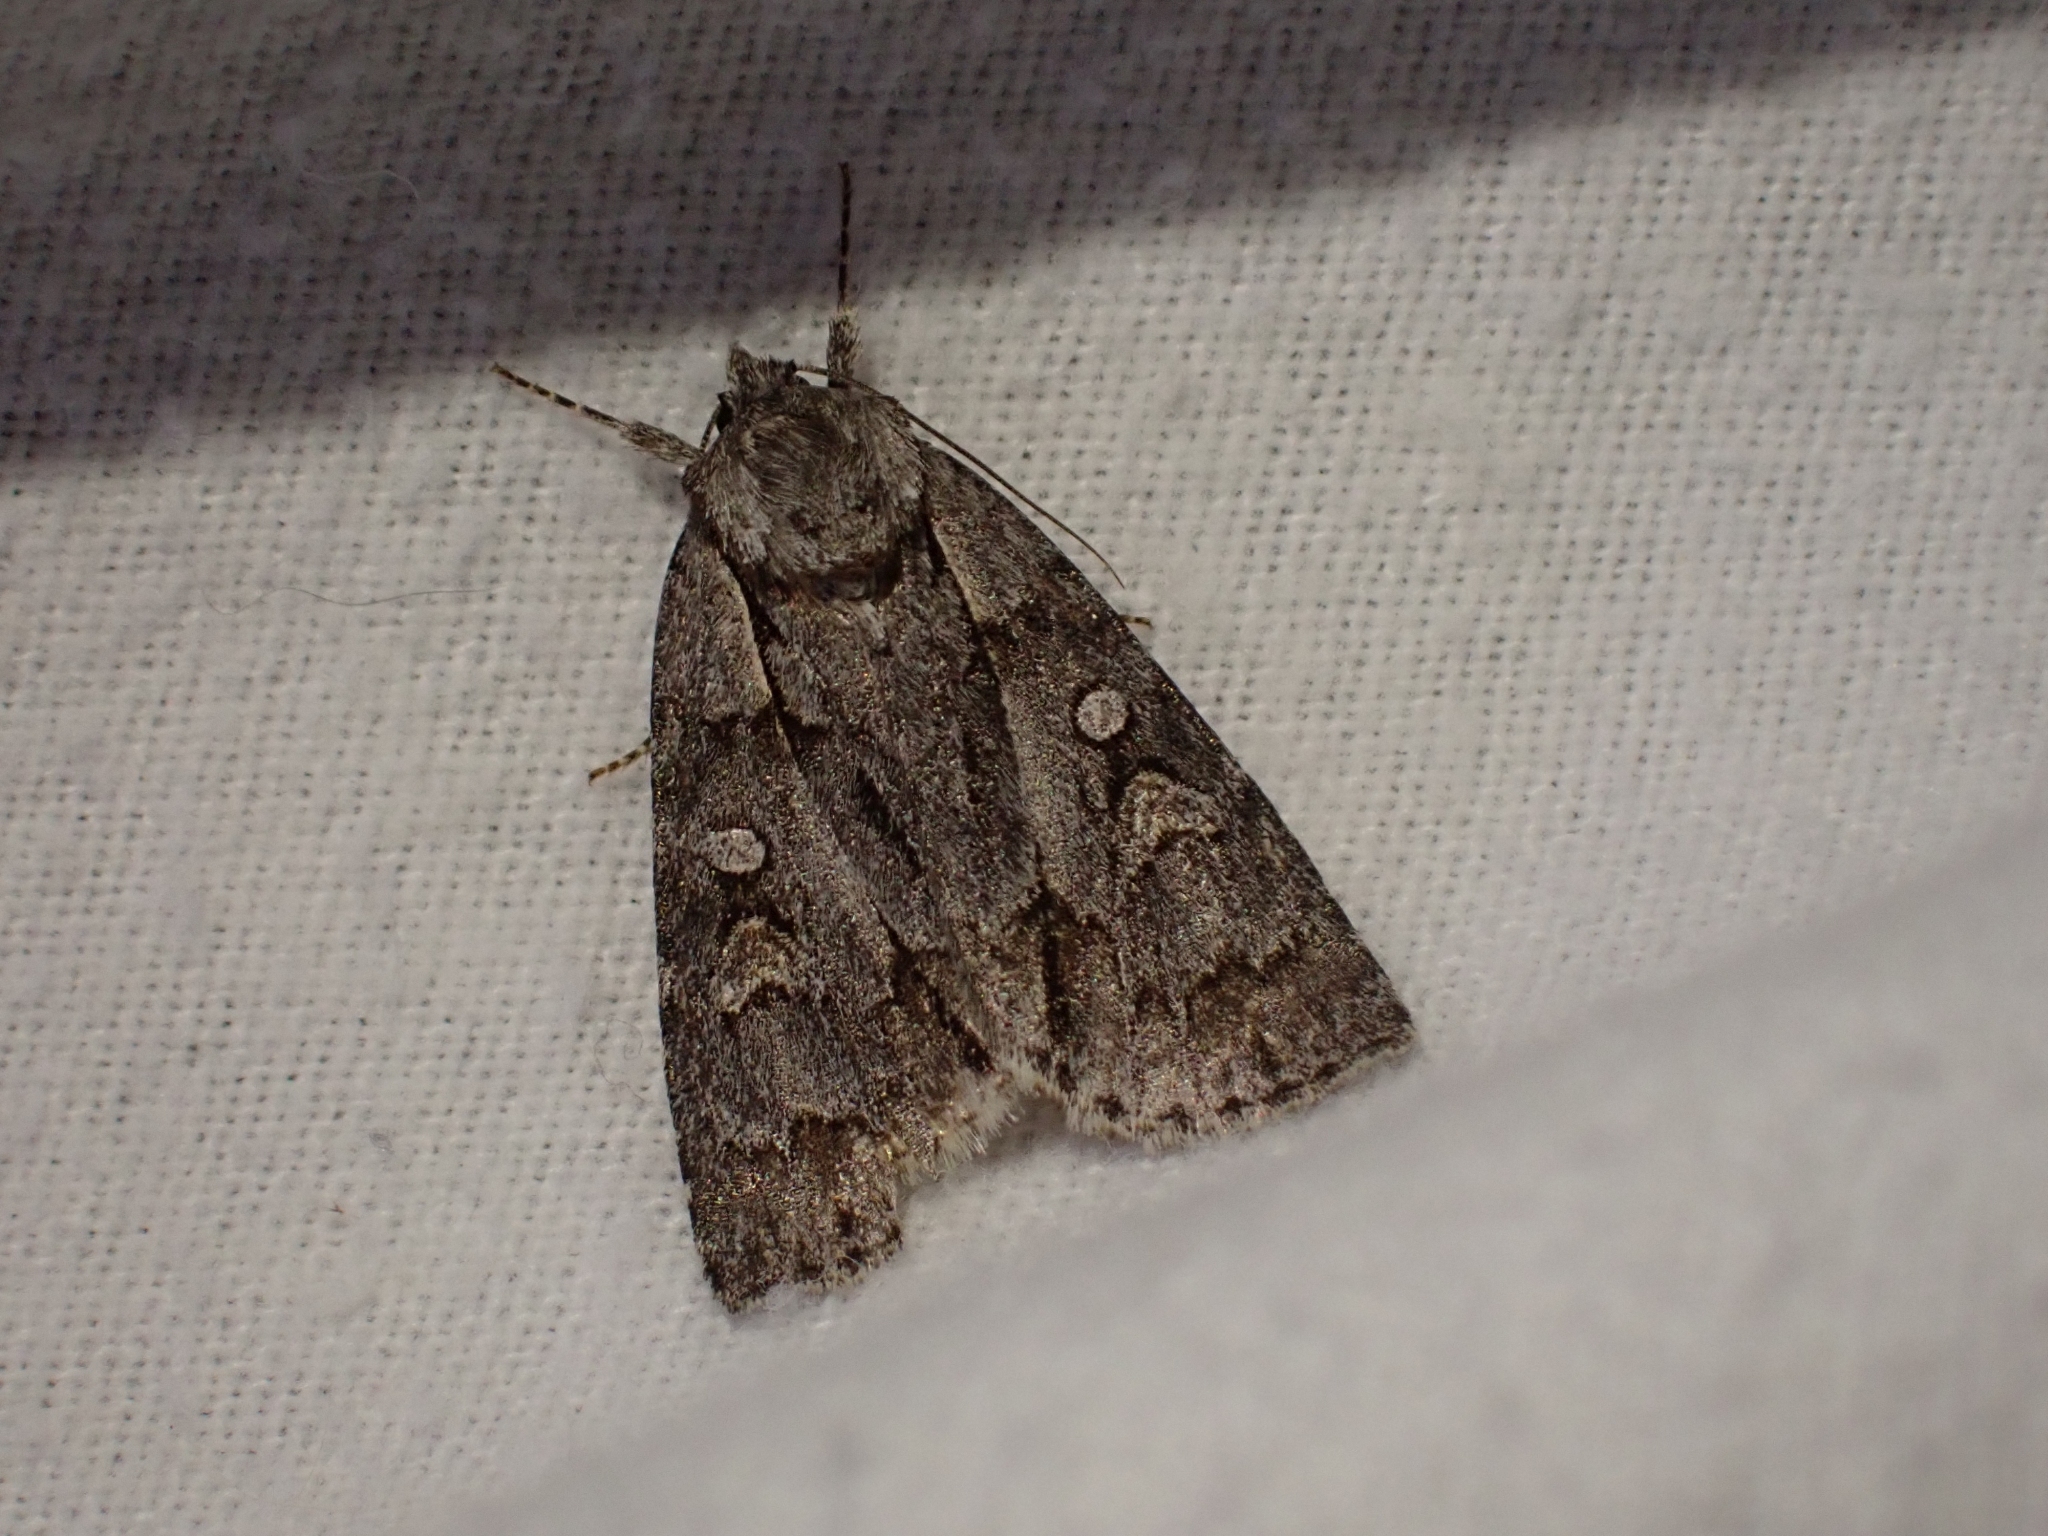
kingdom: Animalia
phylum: Arthropoda
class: Insecta
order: Lepidoptera
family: Noctuidae
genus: Acronicta
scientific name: Acronicta grisea
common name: Gray dagger
